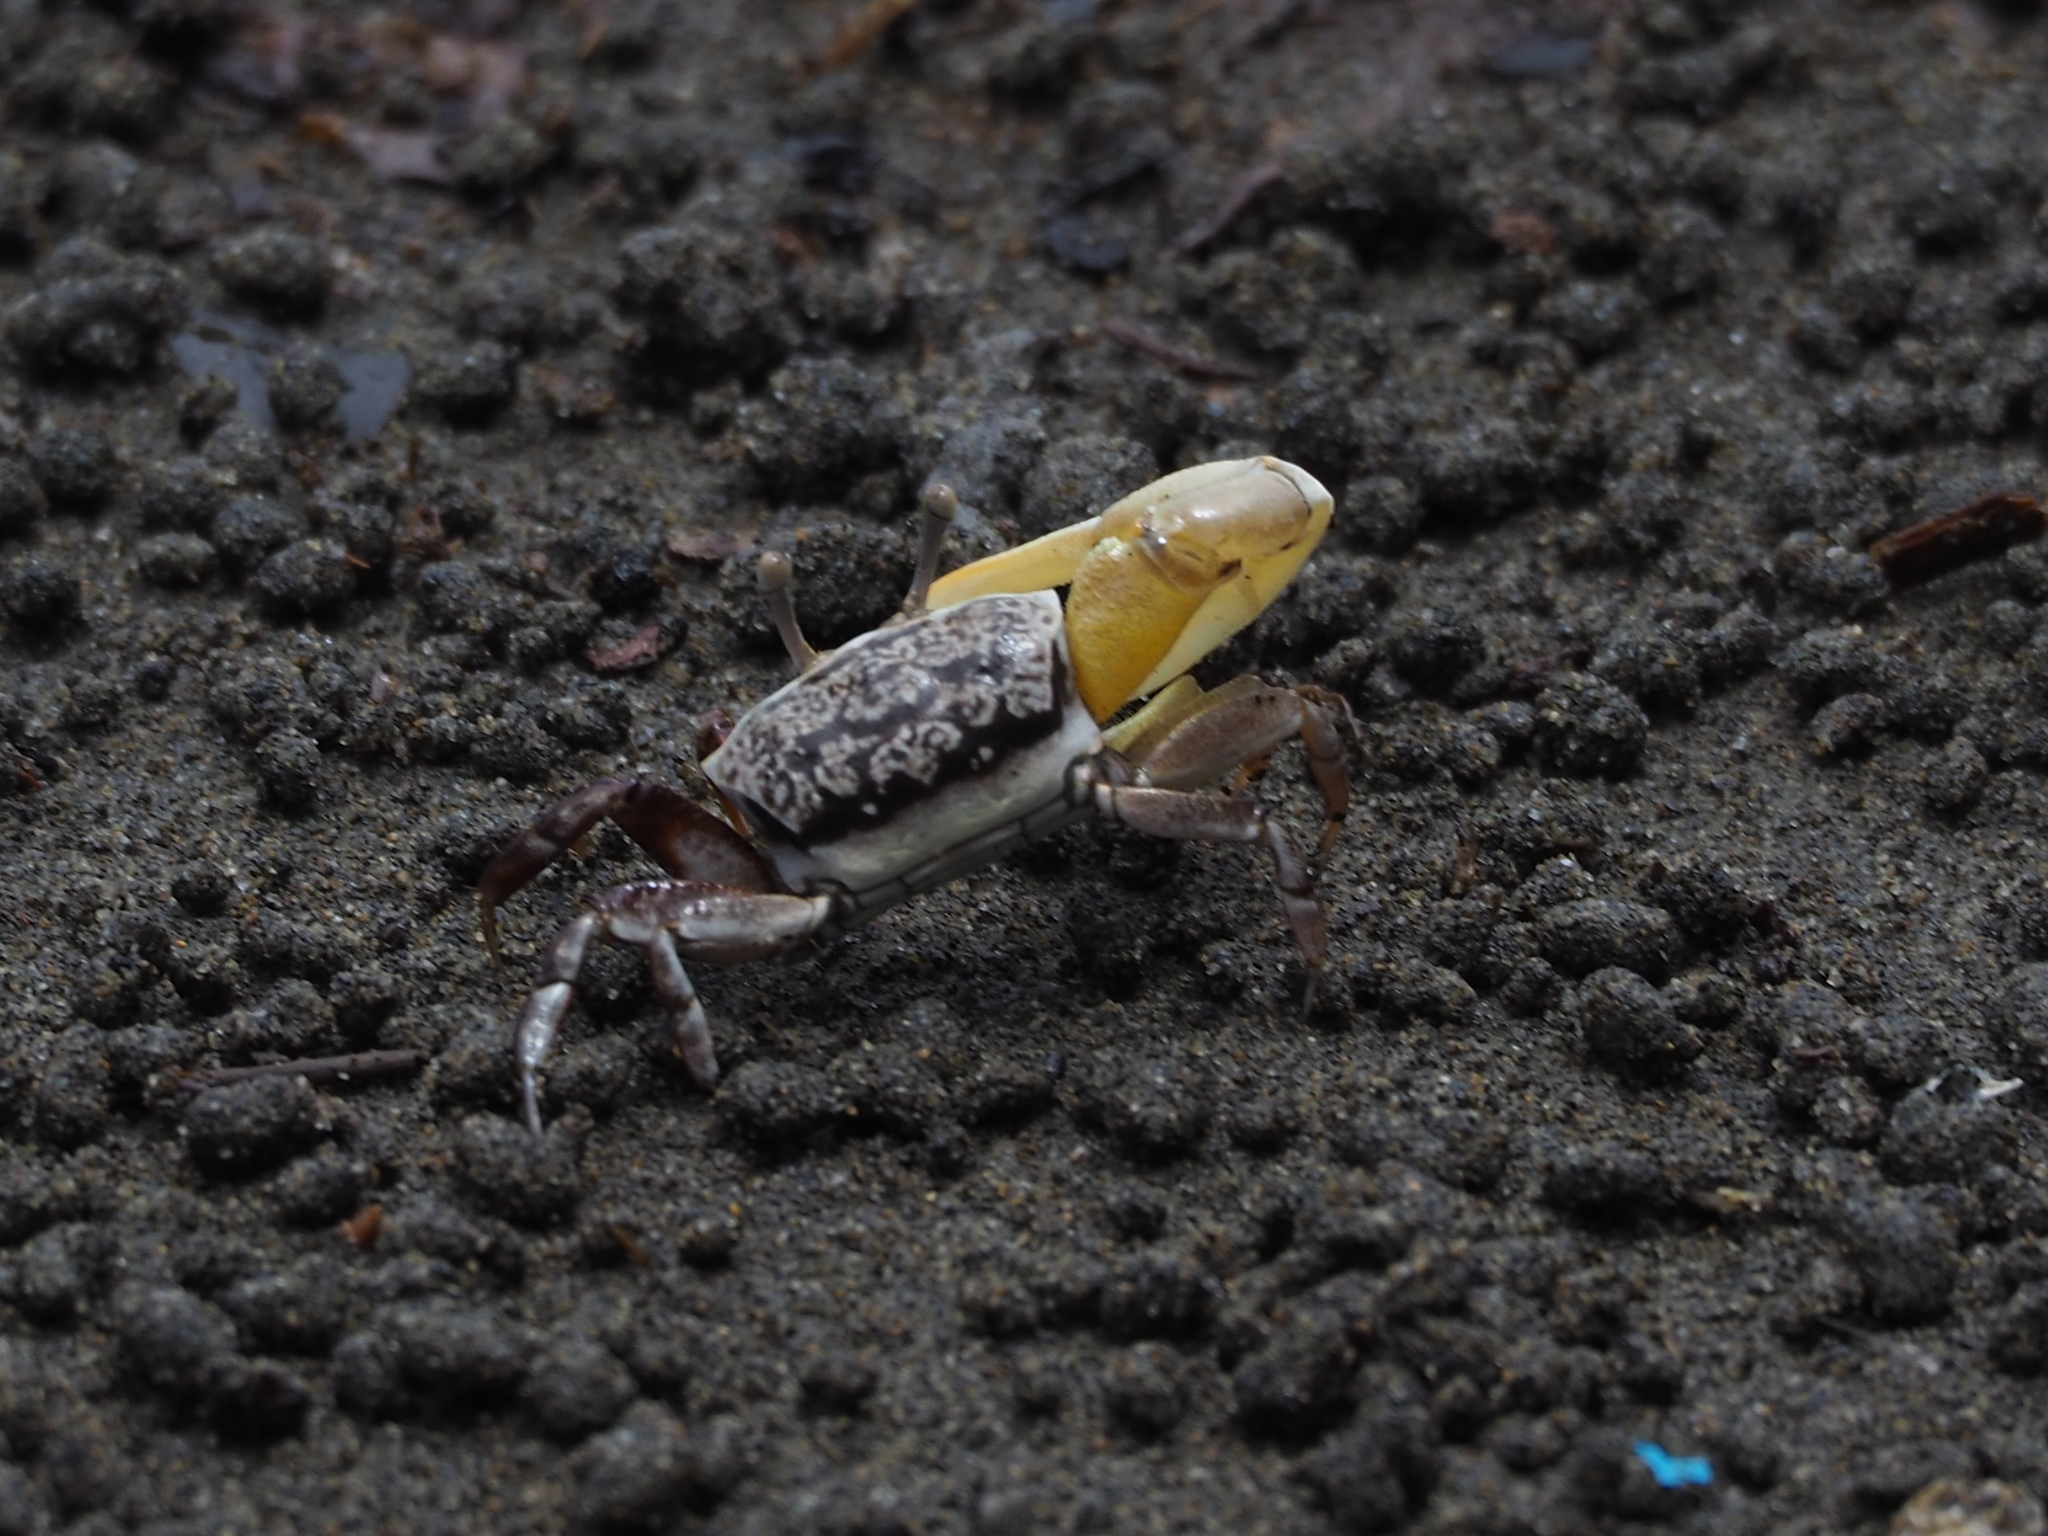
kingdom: Animalia
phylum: Arthropoda
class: Malacostraca
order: Decapoda
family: Ocypodidae
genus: Austruca
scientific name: Austruca lactea
